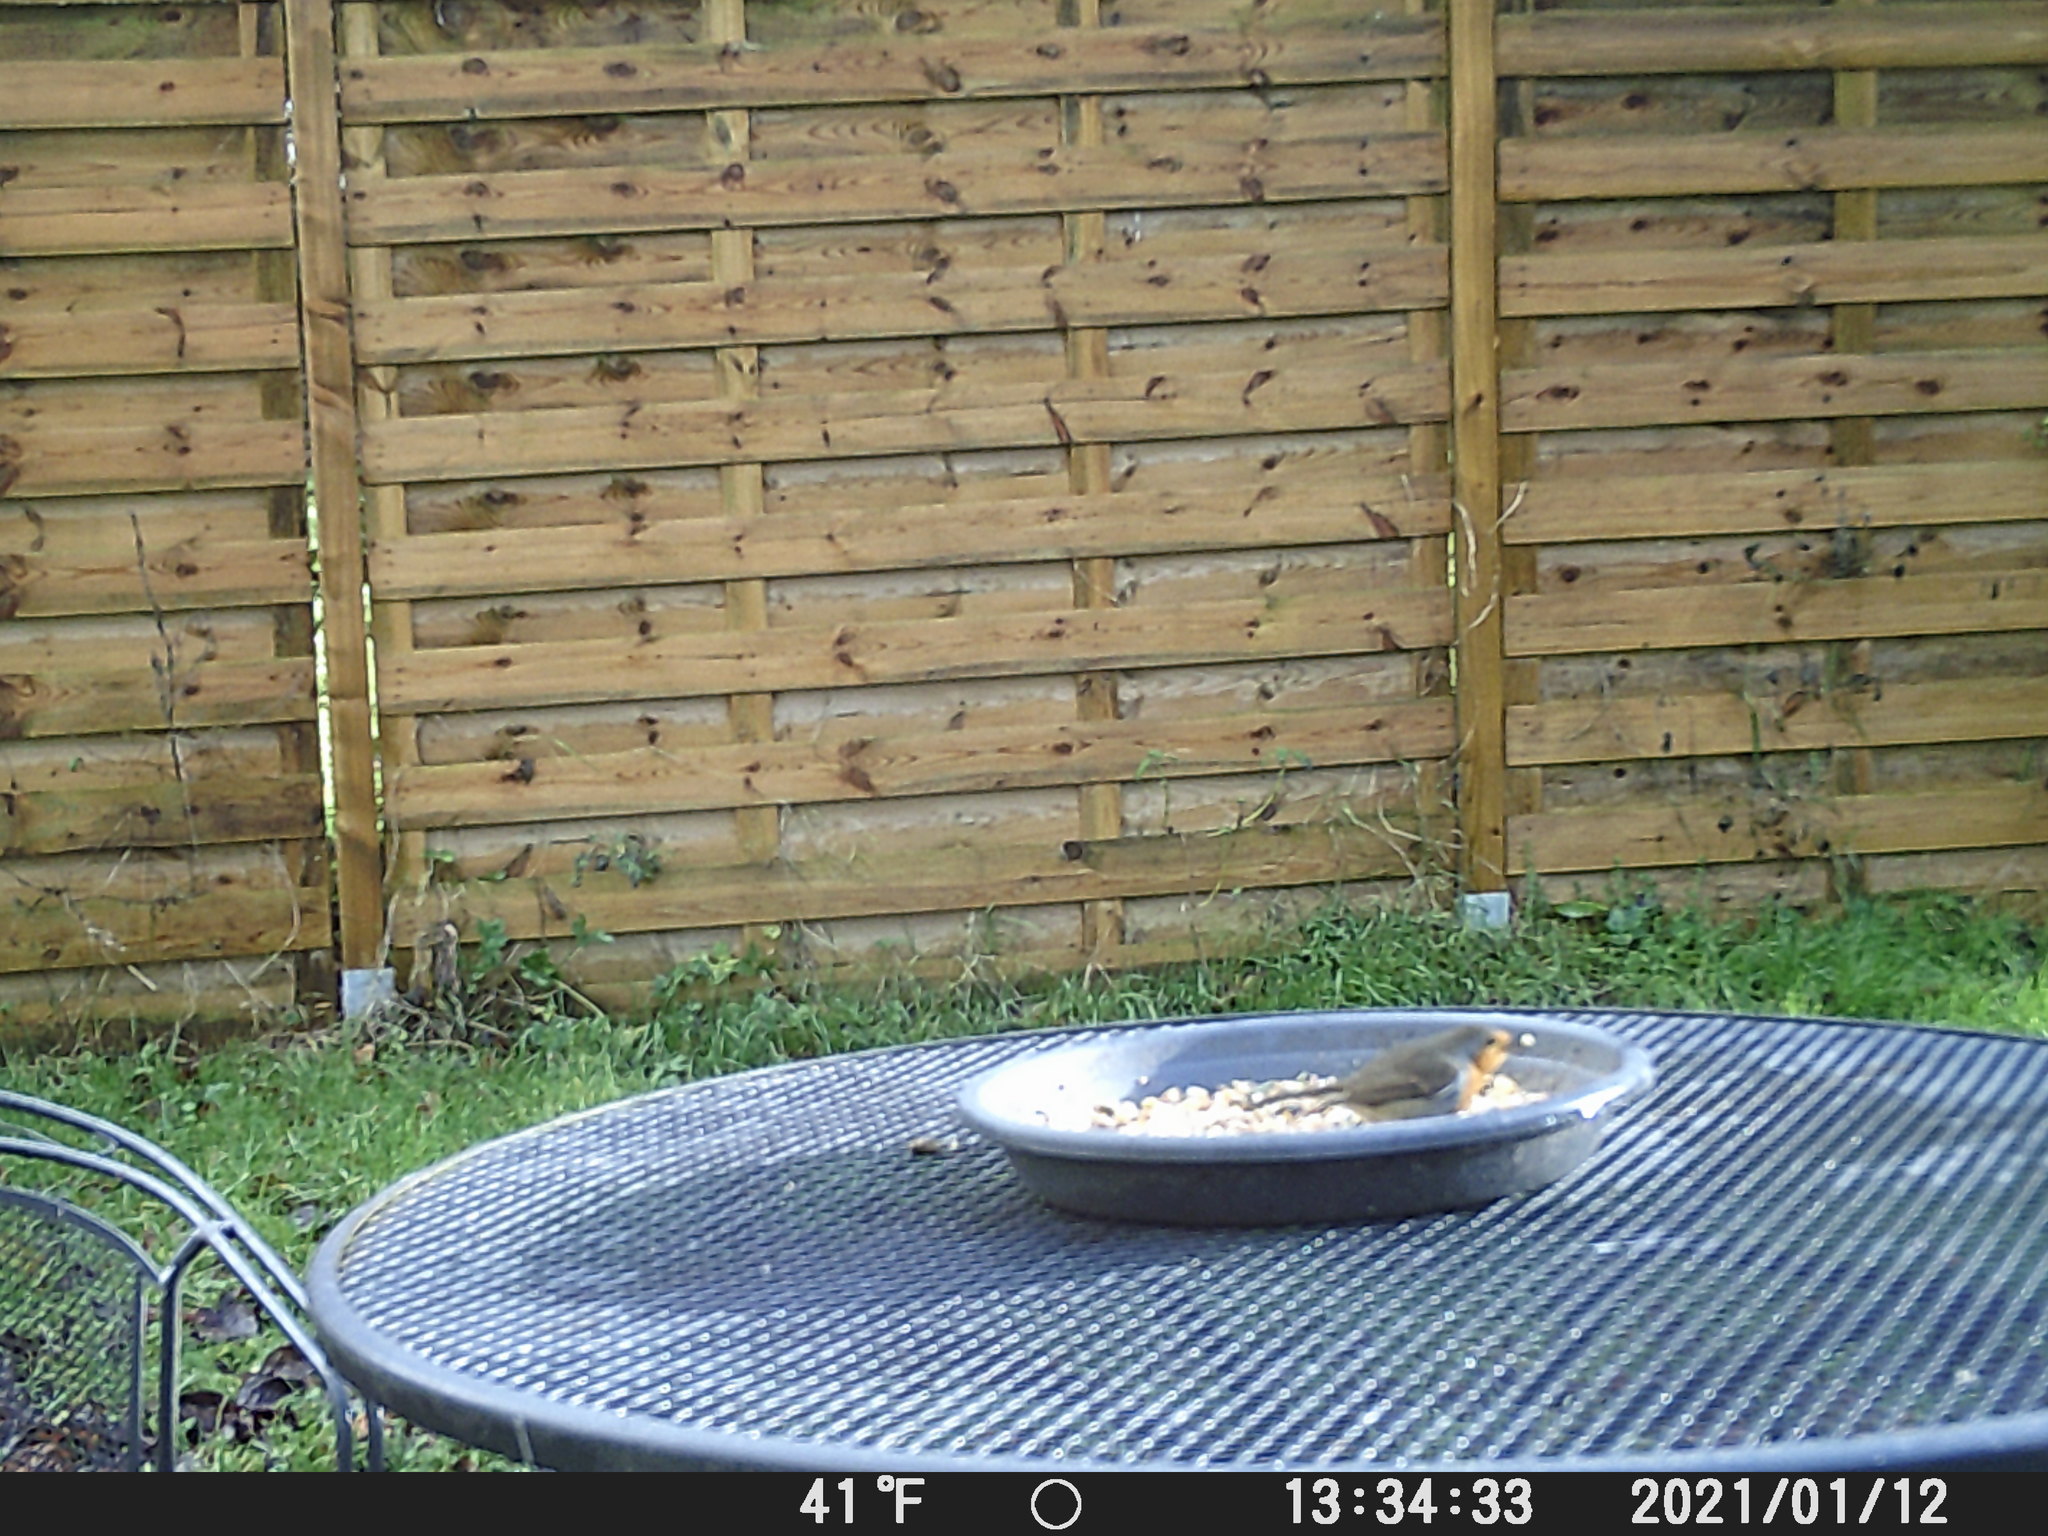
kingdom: Animalia
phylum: Chordata
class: Aves
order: Passeriformes
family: Muscicapidae
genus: Erithacus
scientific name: Erithacus rubecula
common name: European robin
